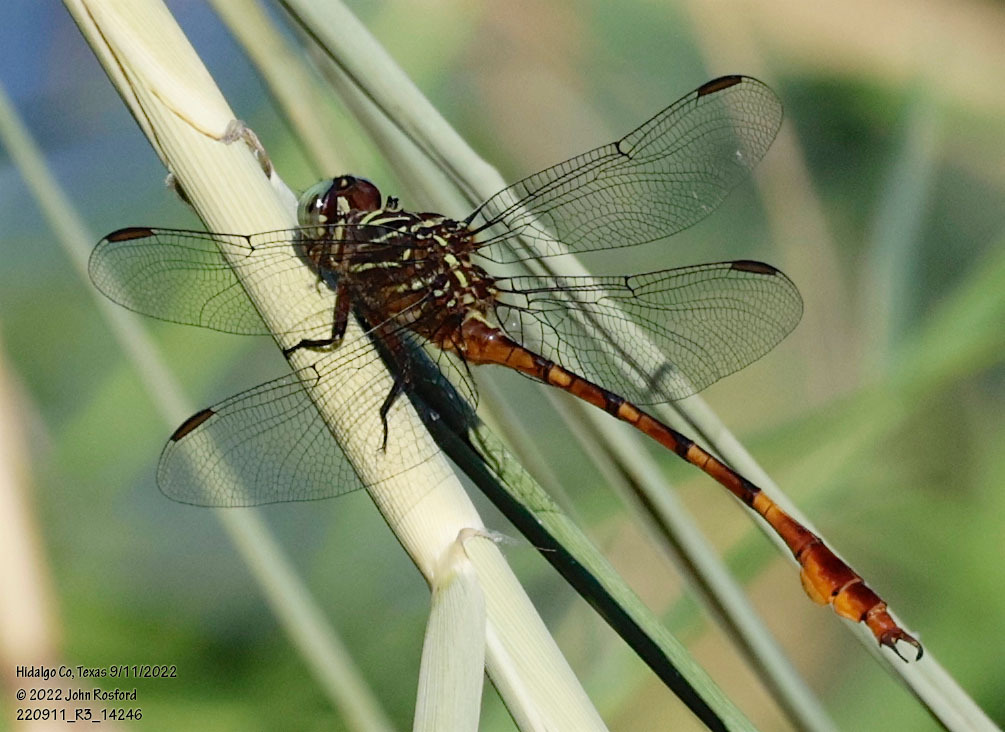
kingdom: Animalia
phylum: Arthropoda
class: Insecta
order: Odonata
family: Gomphidae
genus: Aphylla
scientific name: Aphylla protracta
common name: Narrow-striped forceptail
